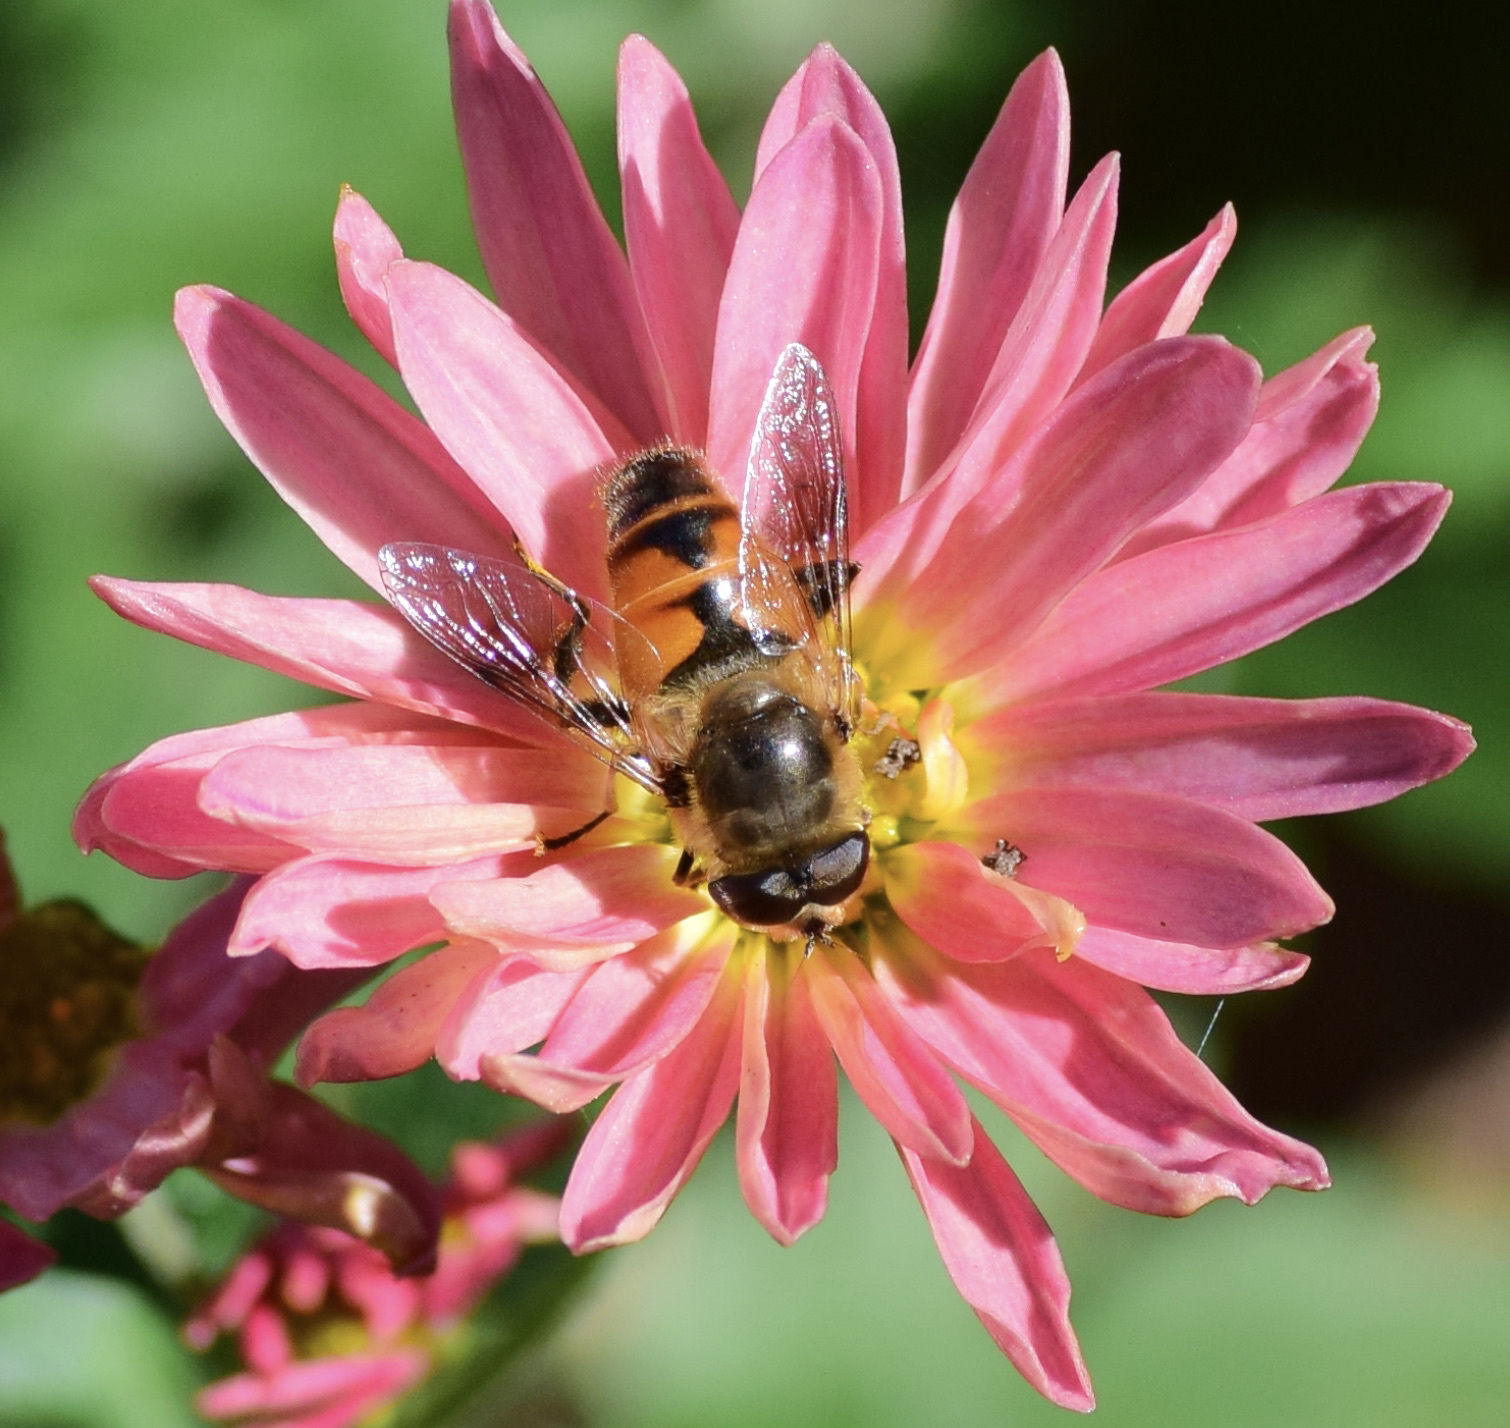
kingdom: Animalia
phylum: Arthropoda
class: Insecta
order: Diptera
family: Syrphidae
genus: Eristalis
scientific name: Eristalis tenax
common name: Drone fly
